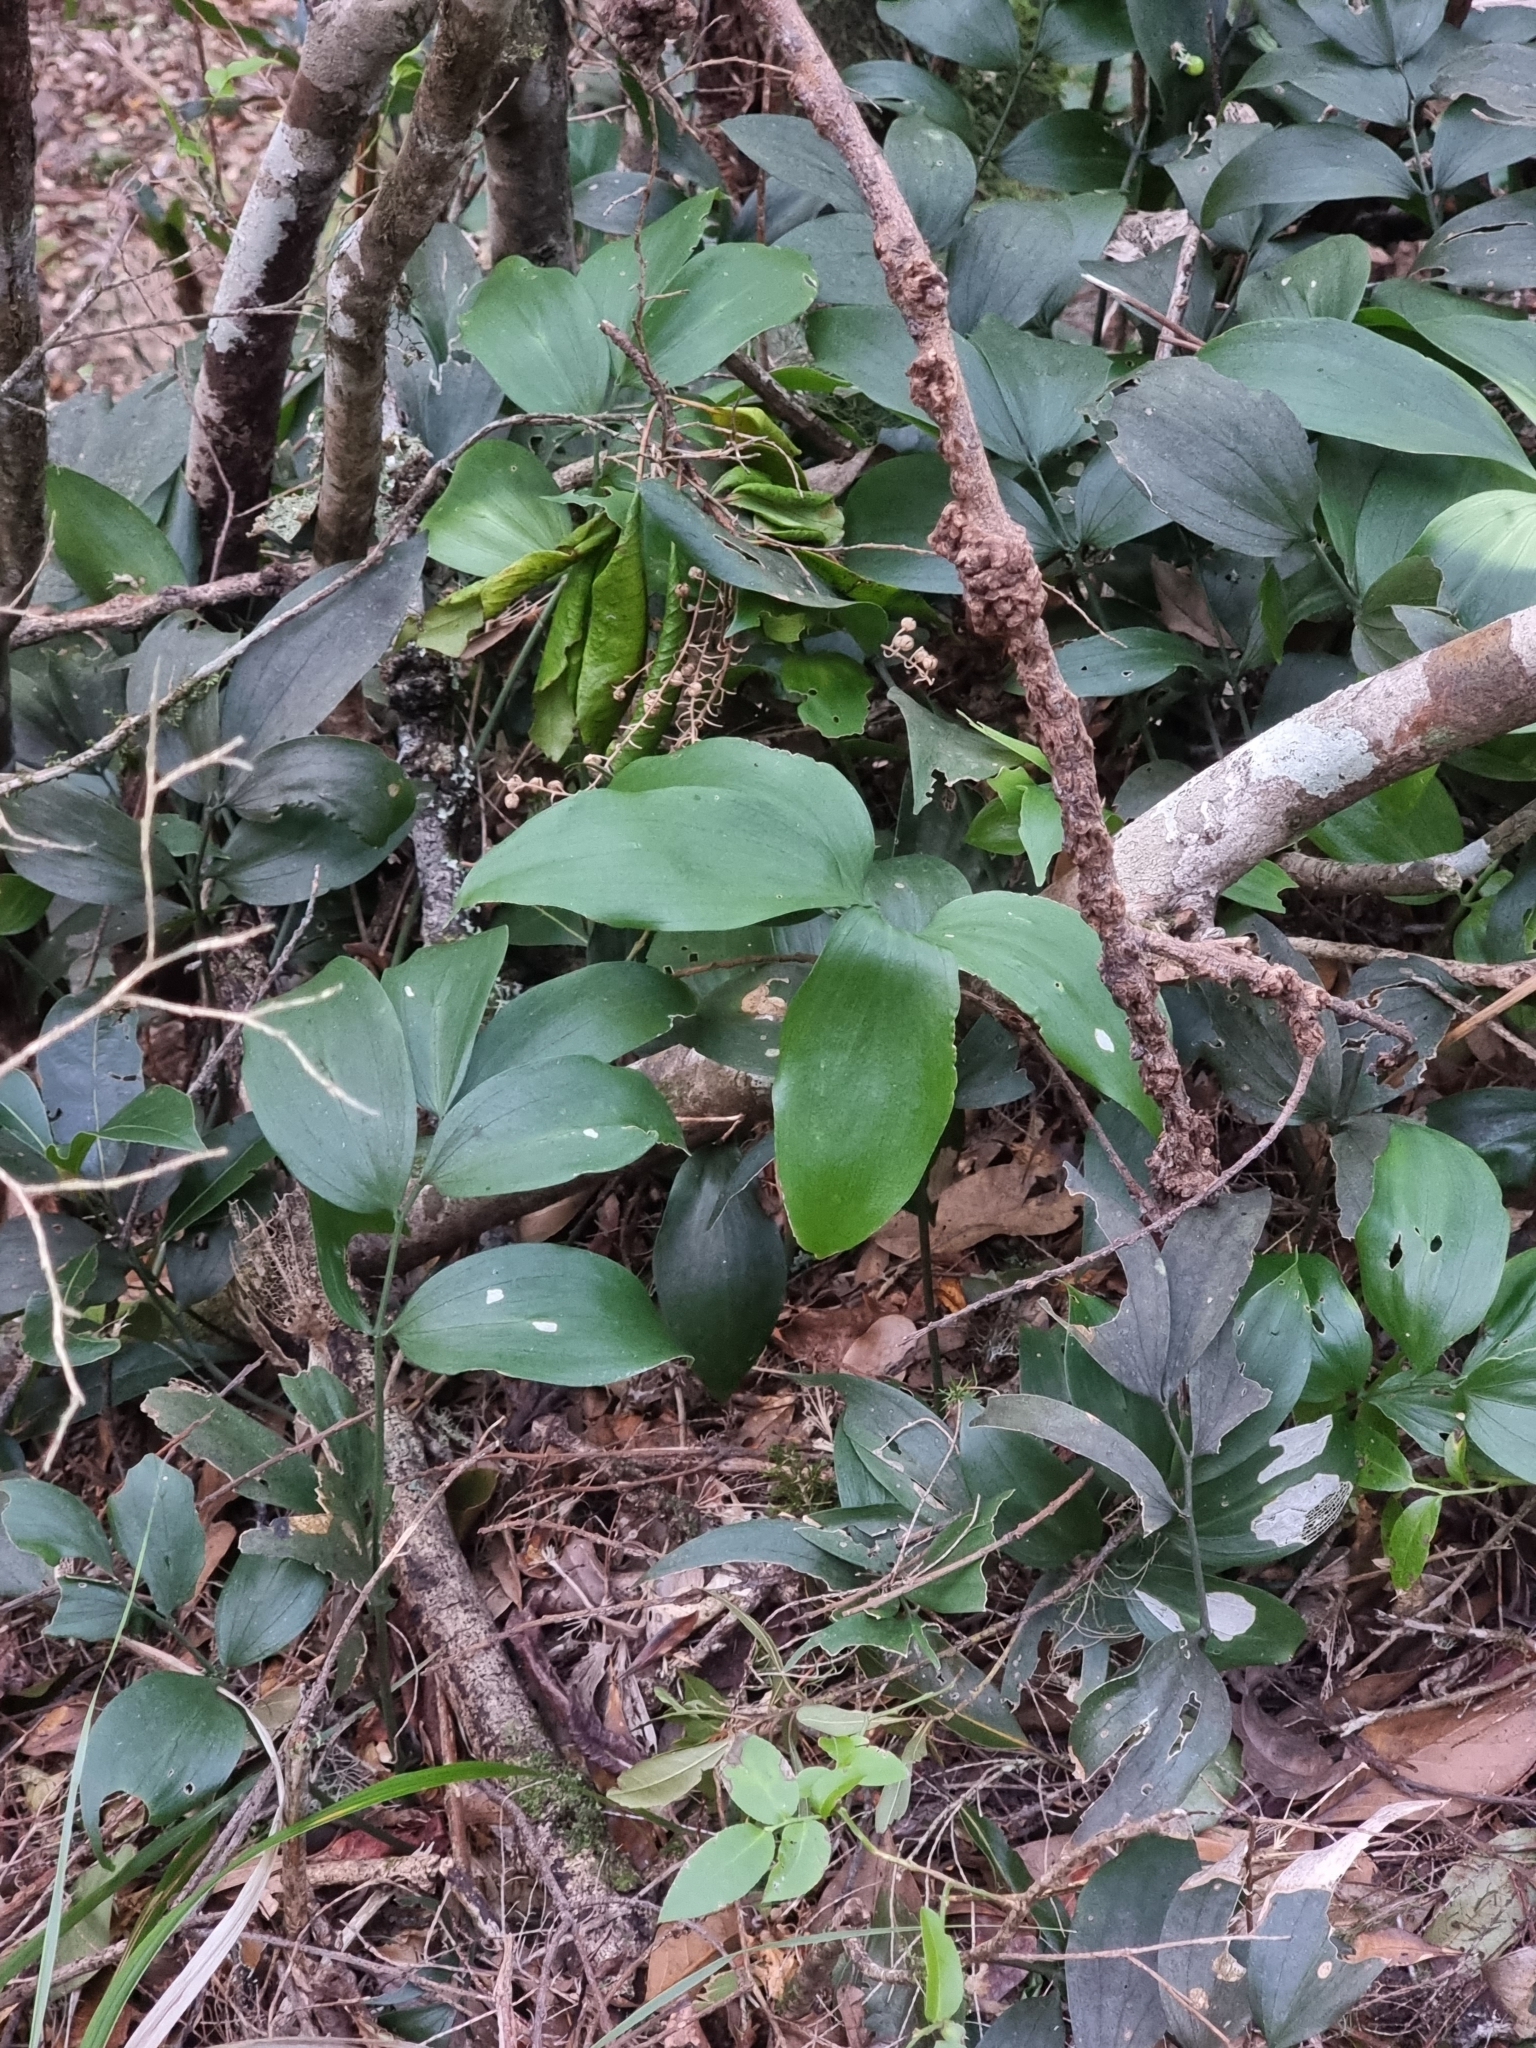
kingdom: Plantae
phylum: Tracheophyta
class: Liliopsida
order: Asparagales
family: Asparagaceae
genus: Ruscus
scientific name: Ruscus streptophyllus
